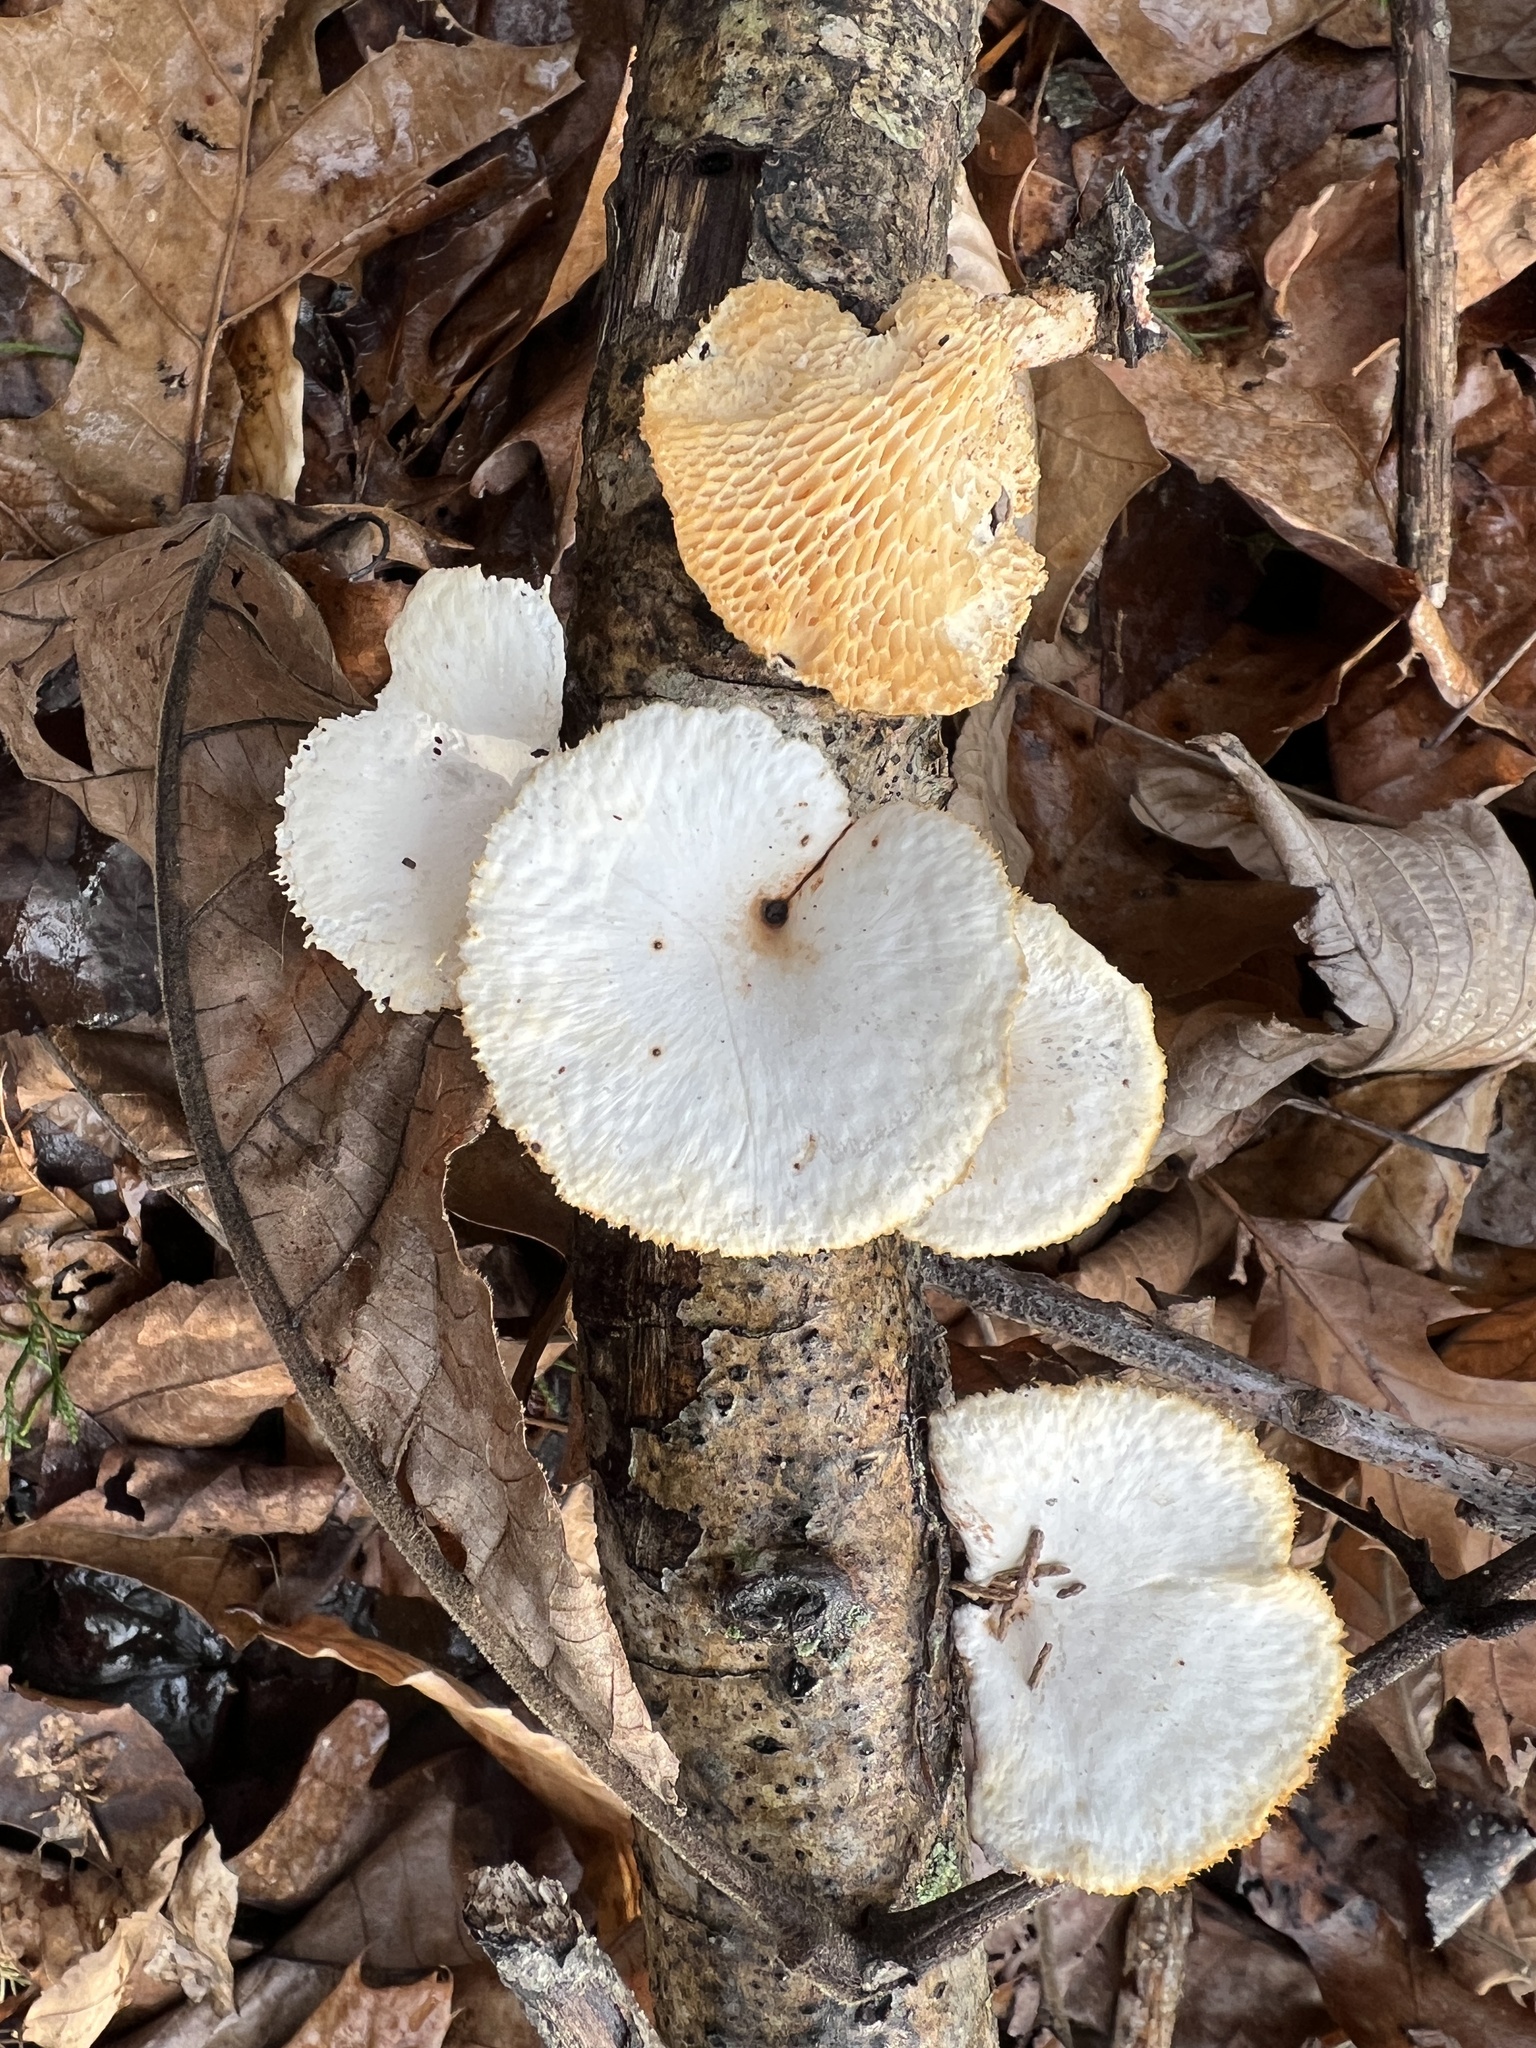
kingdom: Fungi
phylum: Basidiomycota
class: Agaricomycetes
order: Polyporales
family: Polyporaceae
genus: Neofavolus
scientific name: Neofavolus americanus
